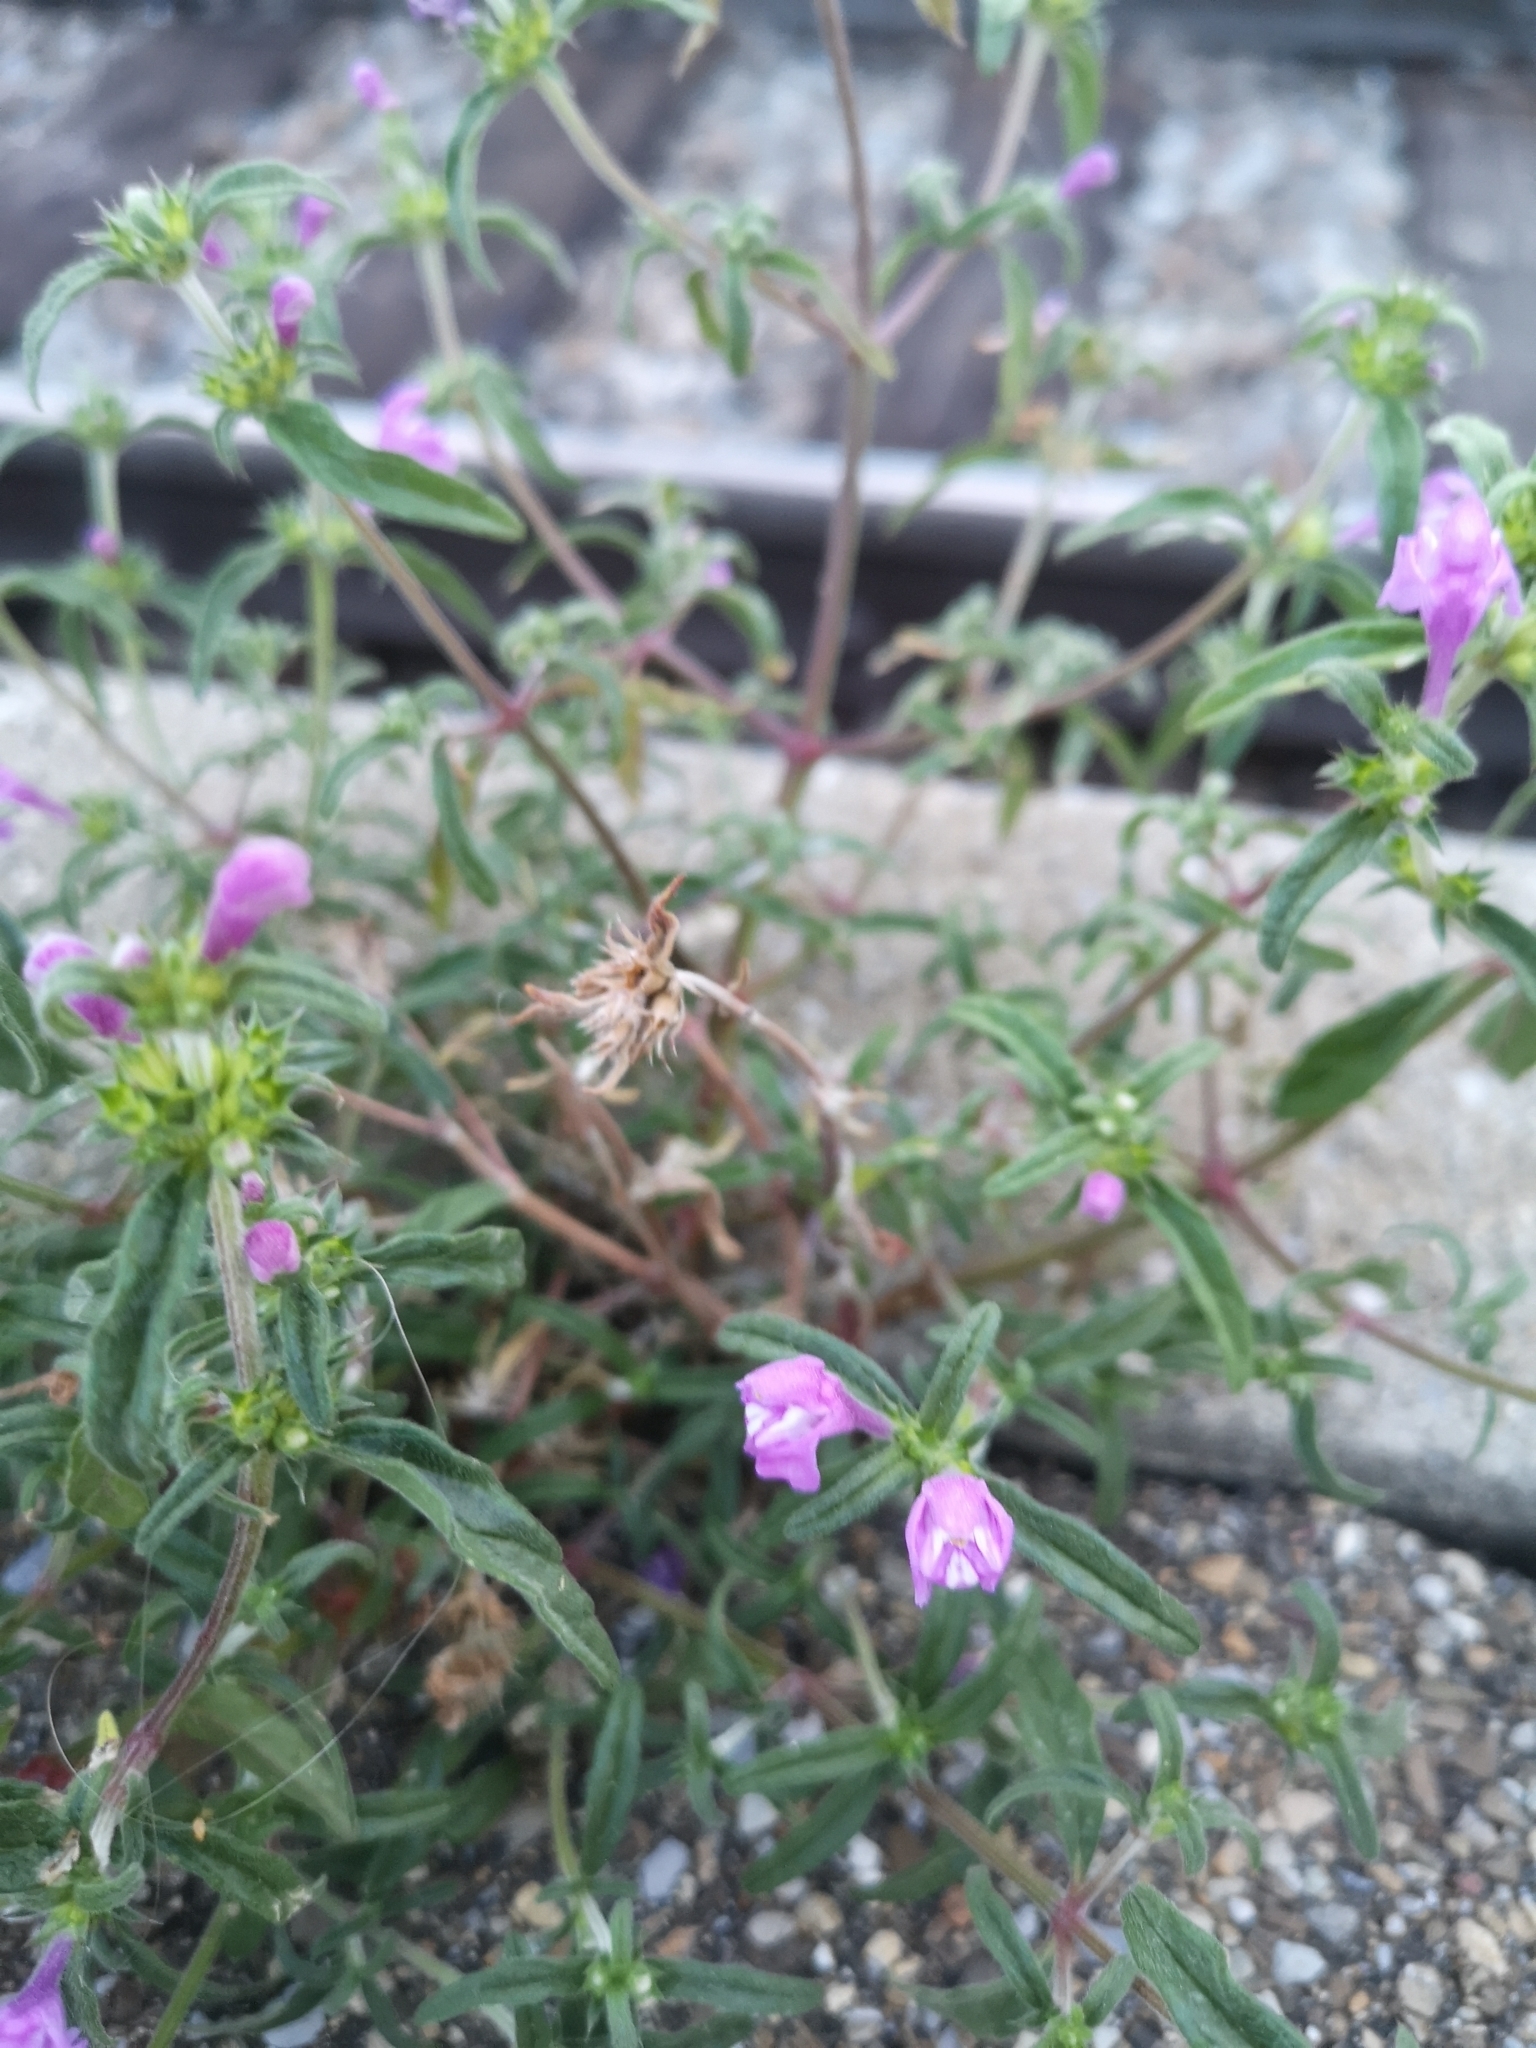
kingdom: Plantae
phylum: Tracheophyta
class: Magnoliopsida
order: Lamiales
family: Lamiaceae
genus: Galeopsis
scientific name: Galeopsis angustifolia
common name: Red hemp-nettle
